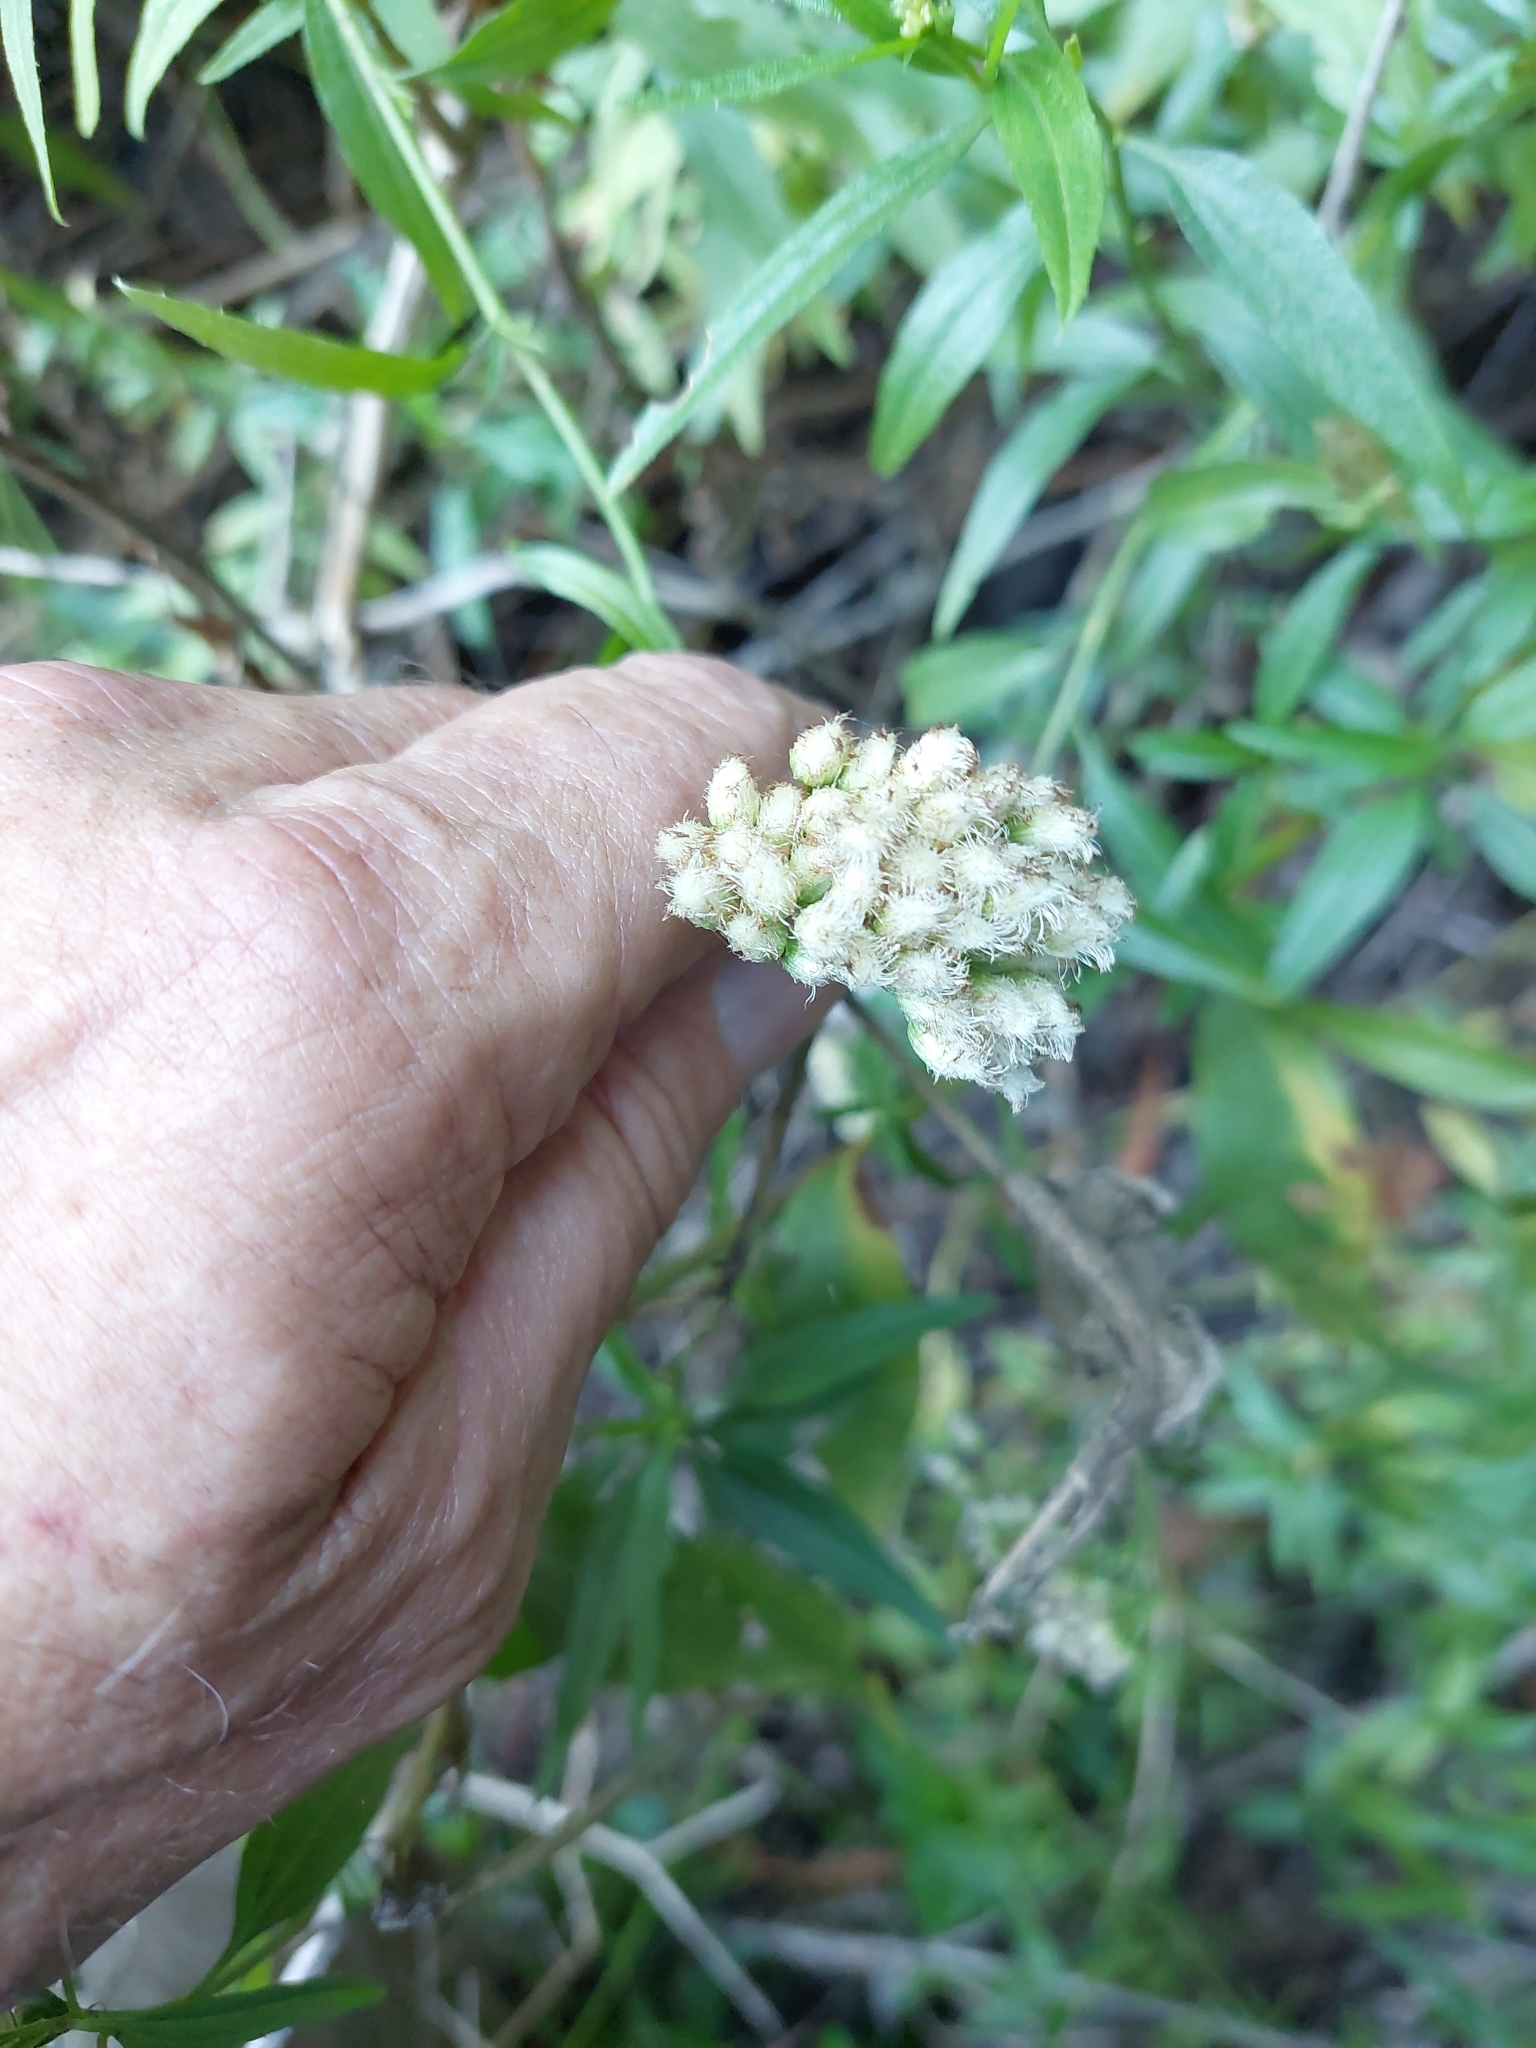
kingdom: Plantae
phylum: Tracheophyta
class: Magnoliopsida
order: Asterales
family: Asteraceae
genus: Baccharis
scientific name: Baccharis glutinosa
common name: Saltmarsh baccharis
